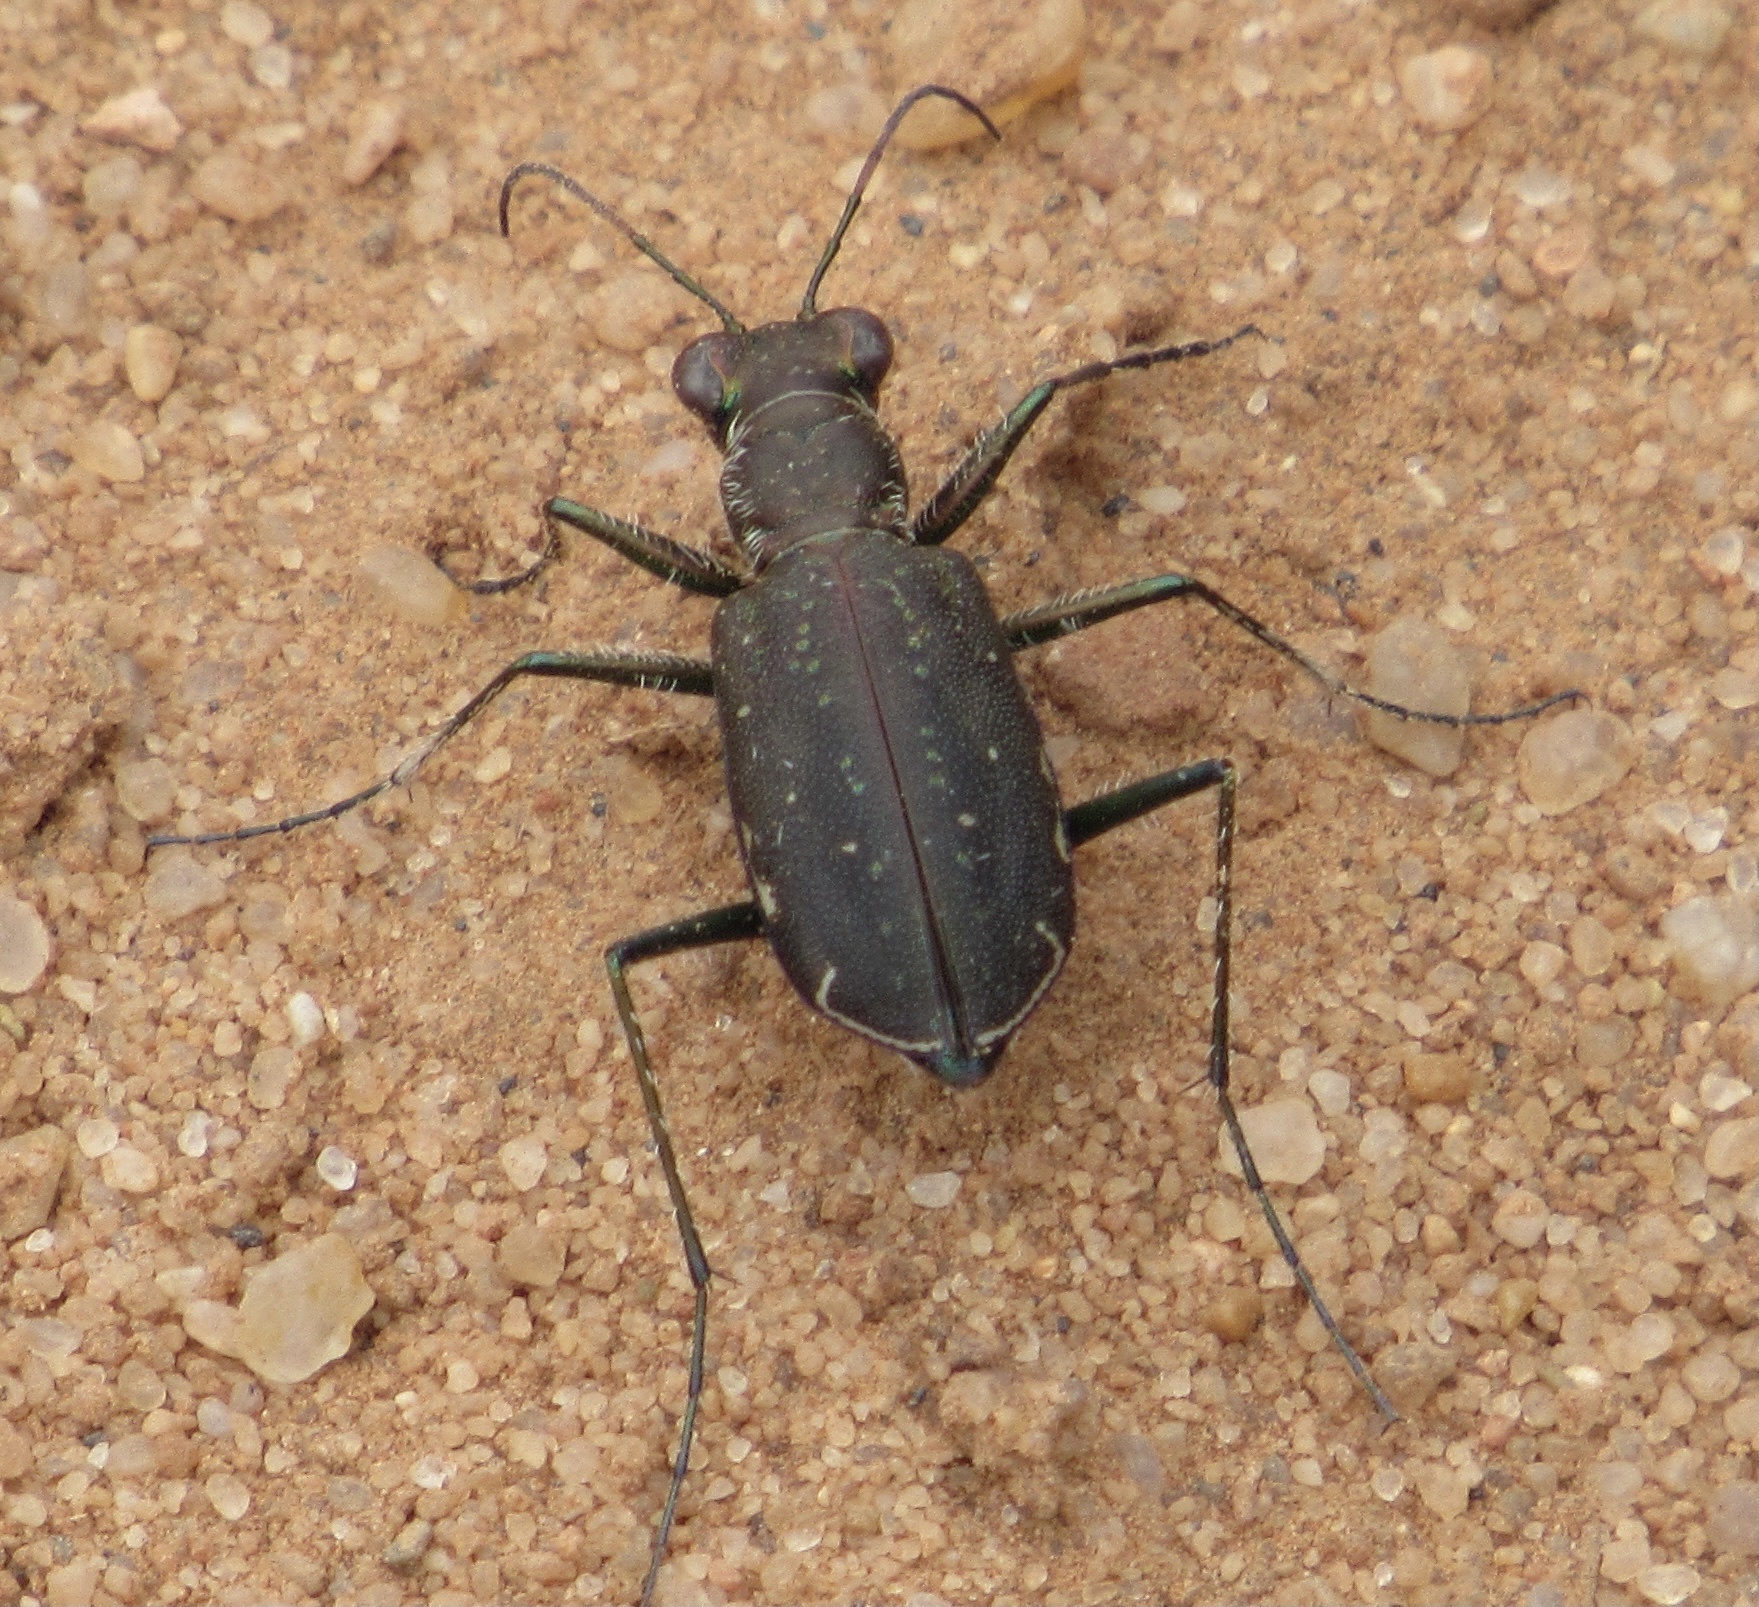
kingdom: Animalia
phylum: Arthropoda
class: Insecta
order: Coleoptera
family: Carabidae
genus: Cicindela
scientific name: Cicindela punctulata
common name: Punctured tiger beetle
